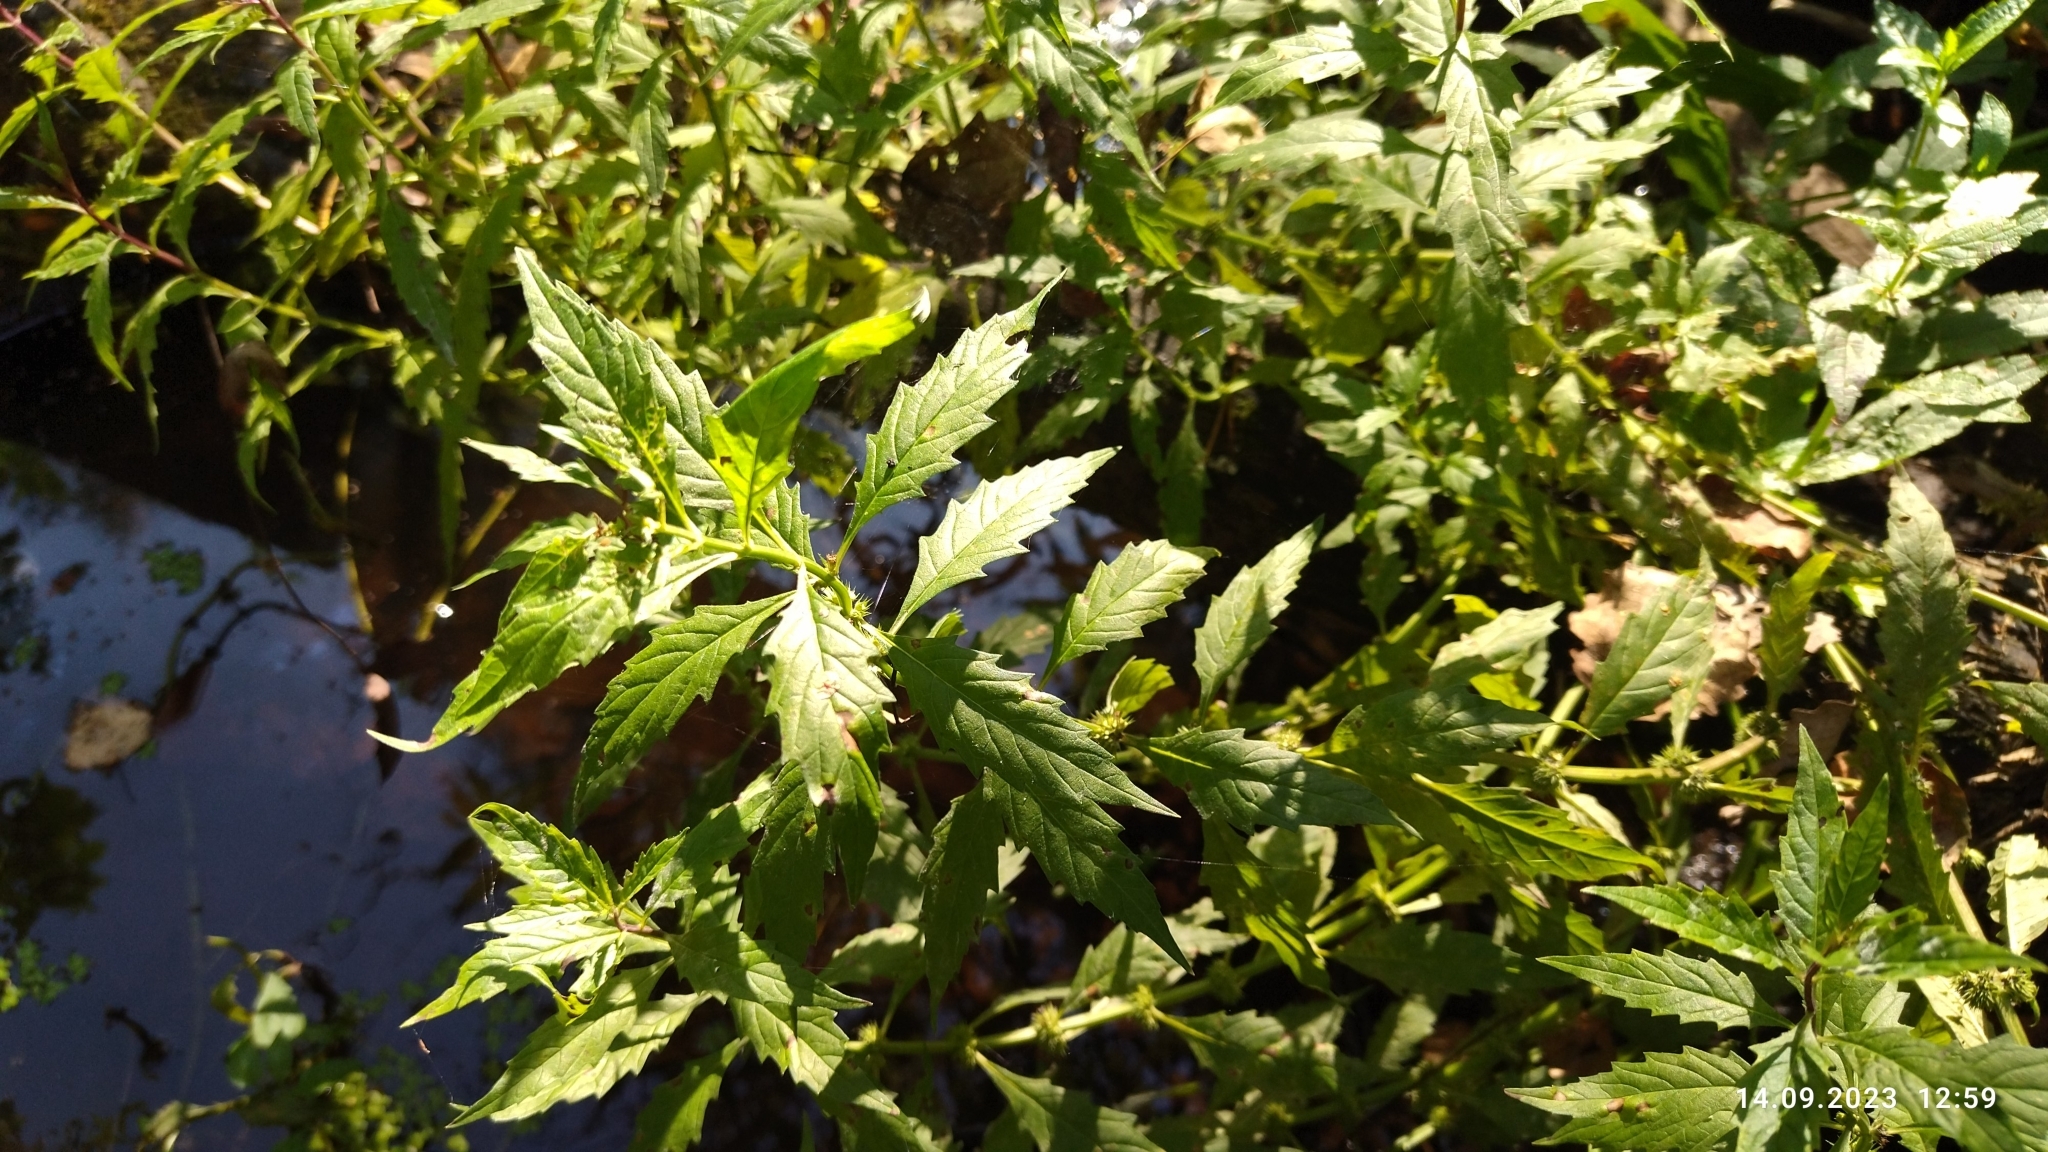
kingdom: Plantae
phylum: Tracheophyta
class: Magnoliopsida
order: Lamiales
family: Lamiaceae
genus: Lycopus
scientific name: Lycopus europaeus
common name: European bugleweed
